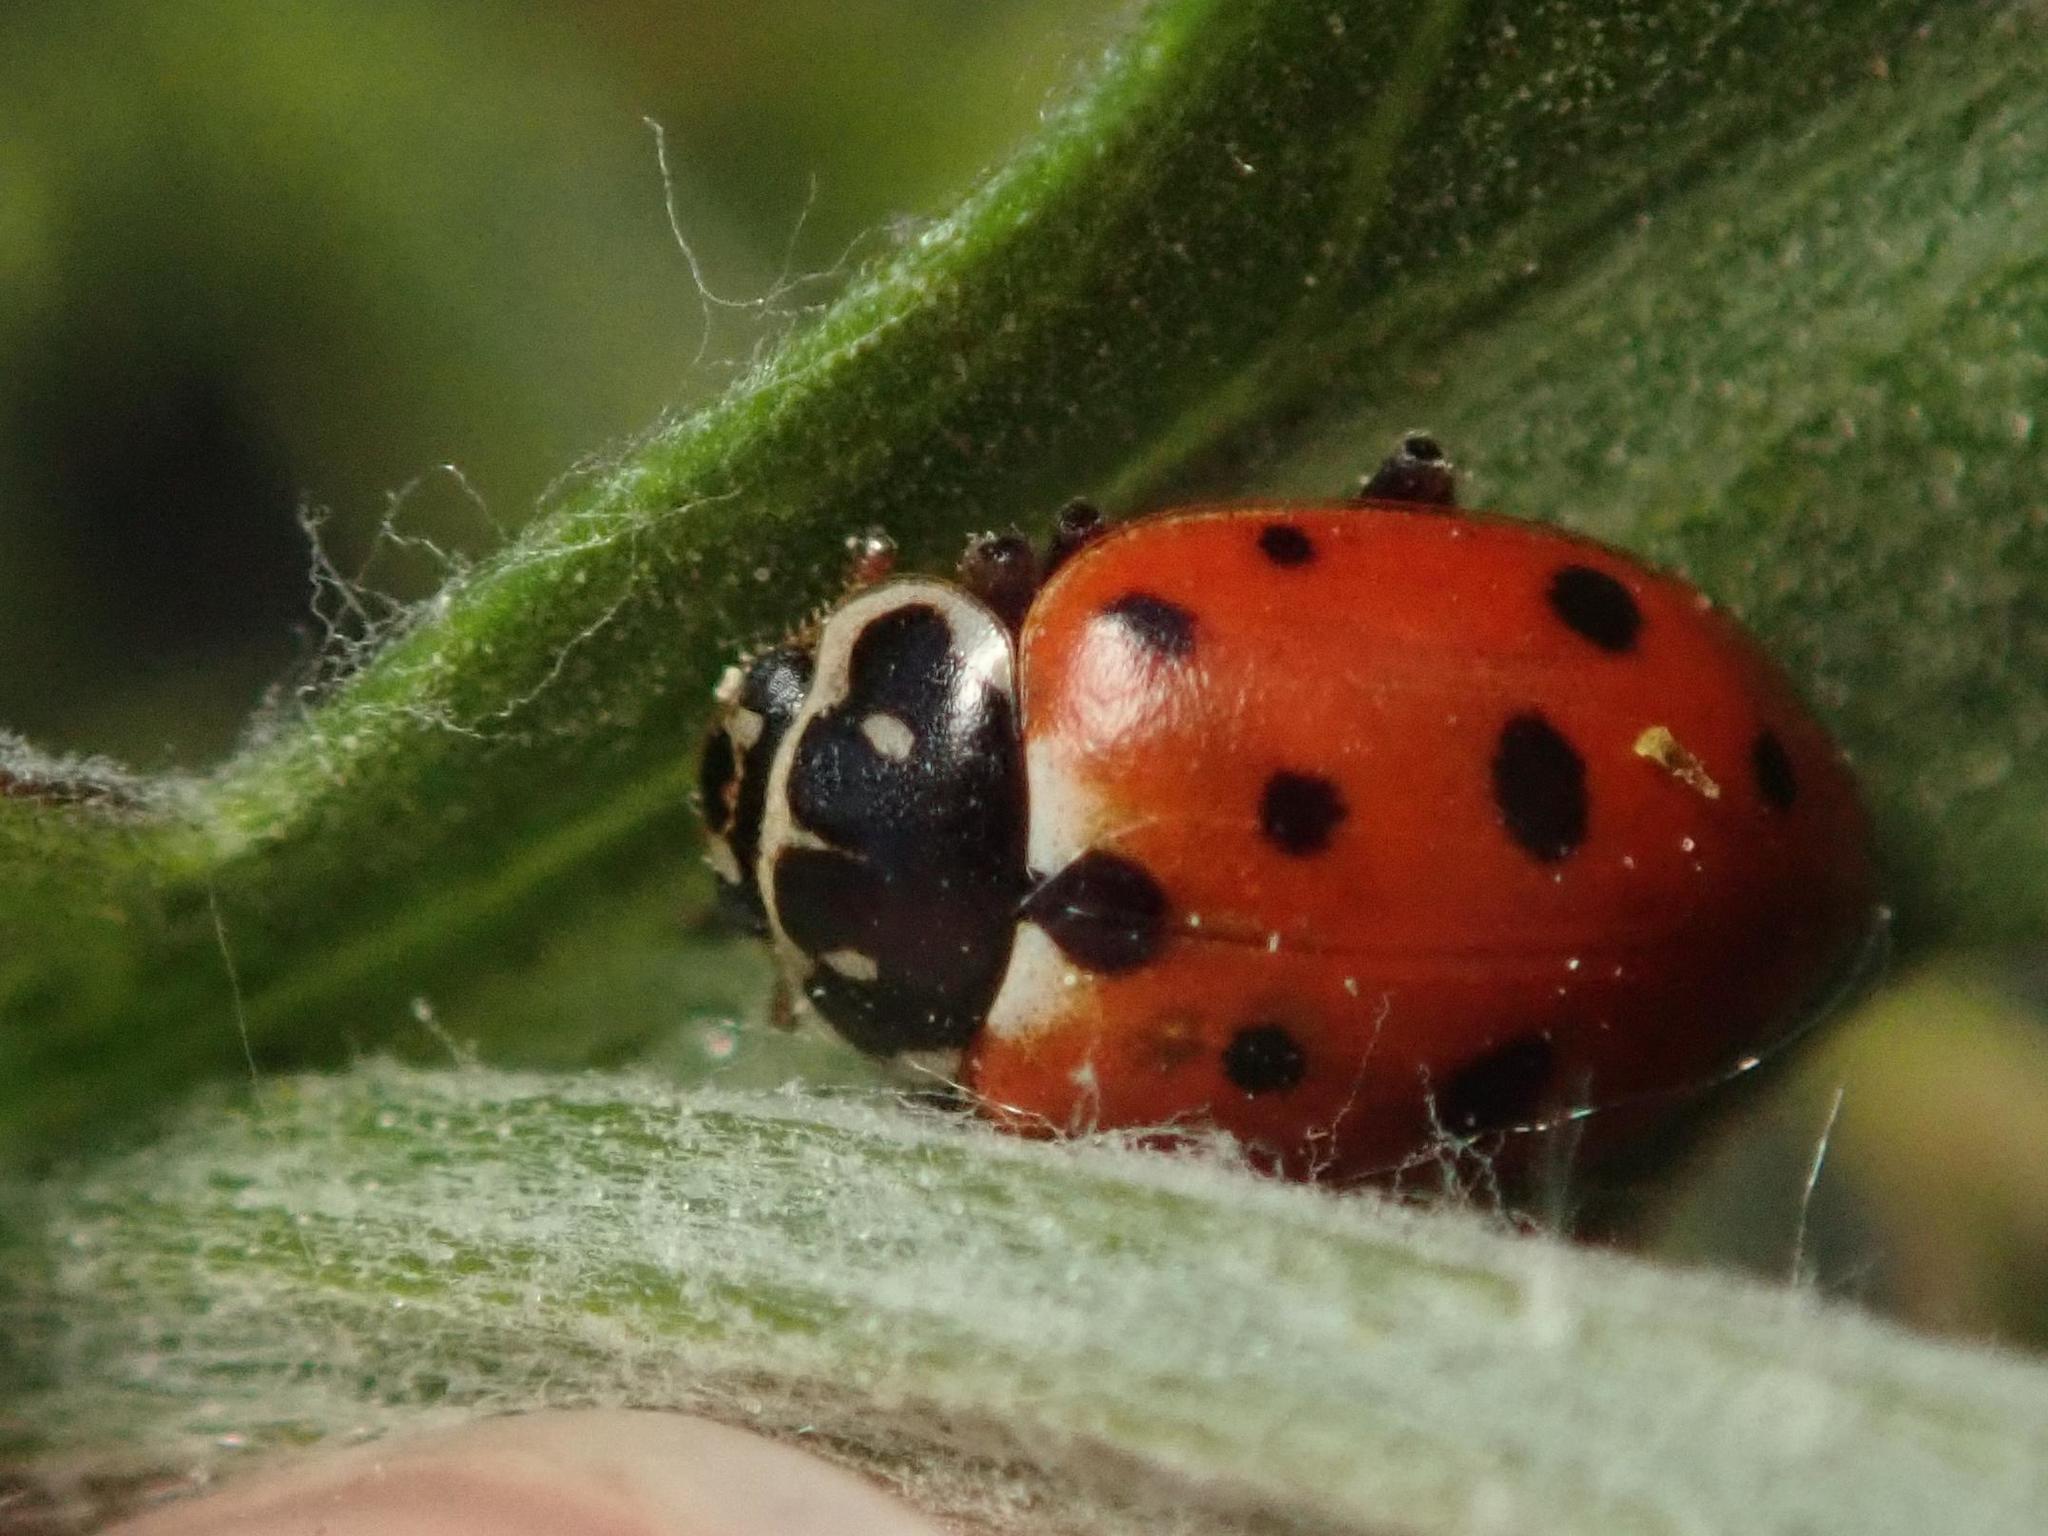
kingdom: Animalia
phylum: Arthropoda
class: Insecta
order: Coleoptera
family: Coccinellidae
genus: Hippodamia
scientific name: Hippodamia variegata
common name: Ladybird beetle
